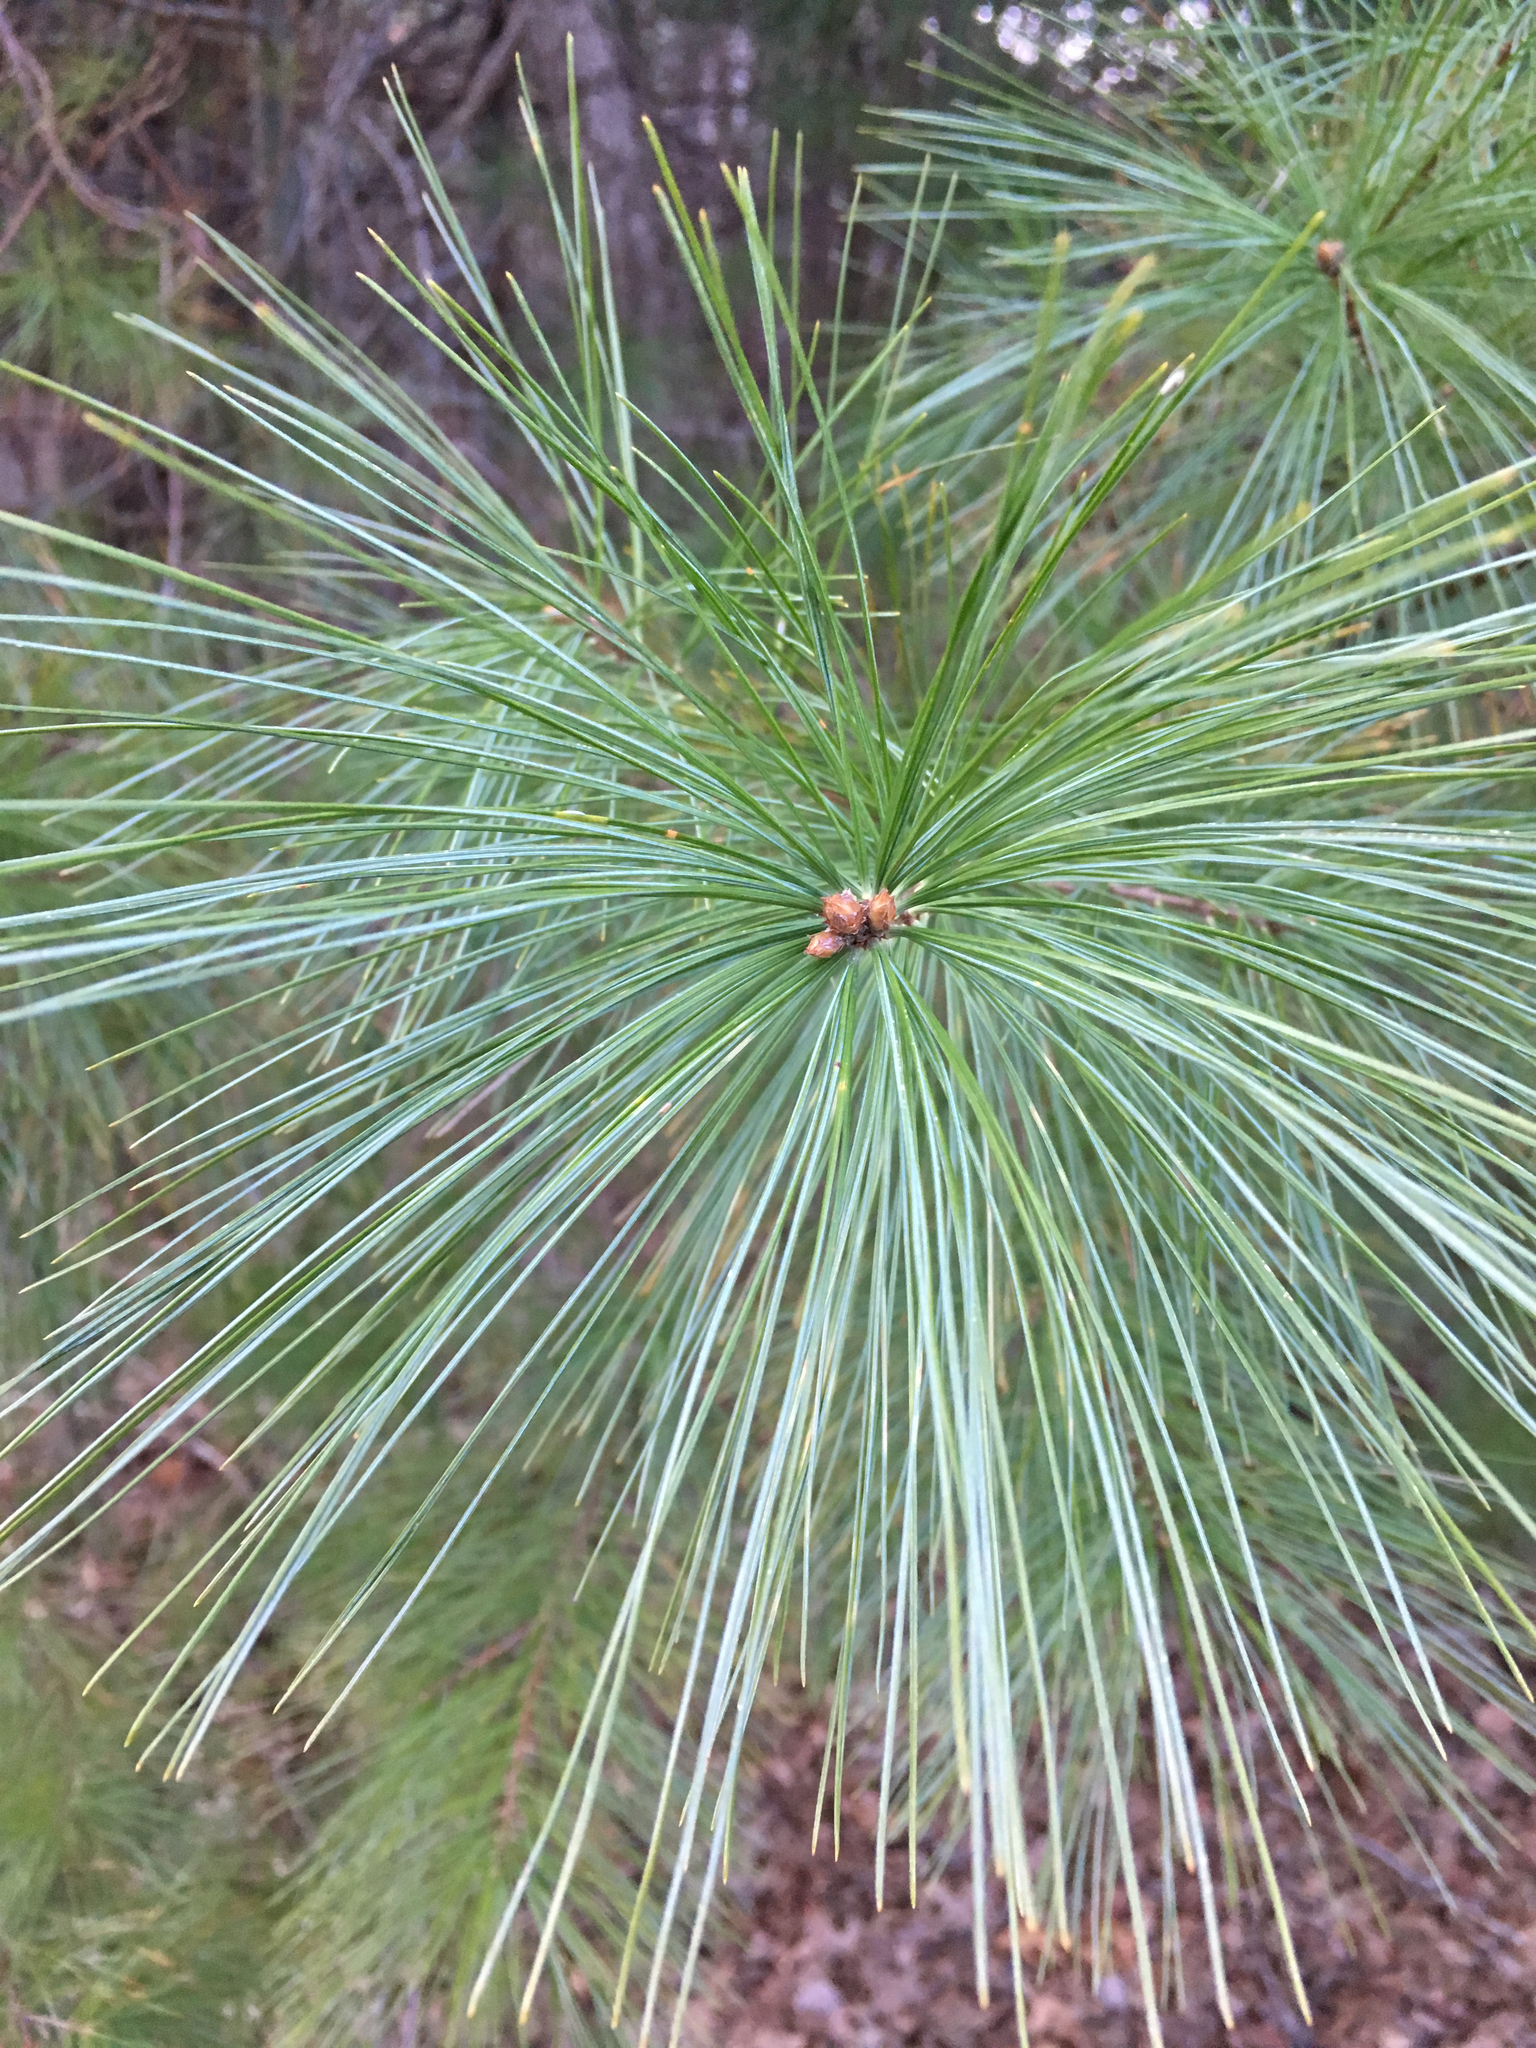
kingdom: Plantae
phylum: Tracheophyta
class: Pinopsida
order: Pinales
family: Pinaceae
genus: Pinus
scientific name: Pinus strobus
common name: Weymouth pine
